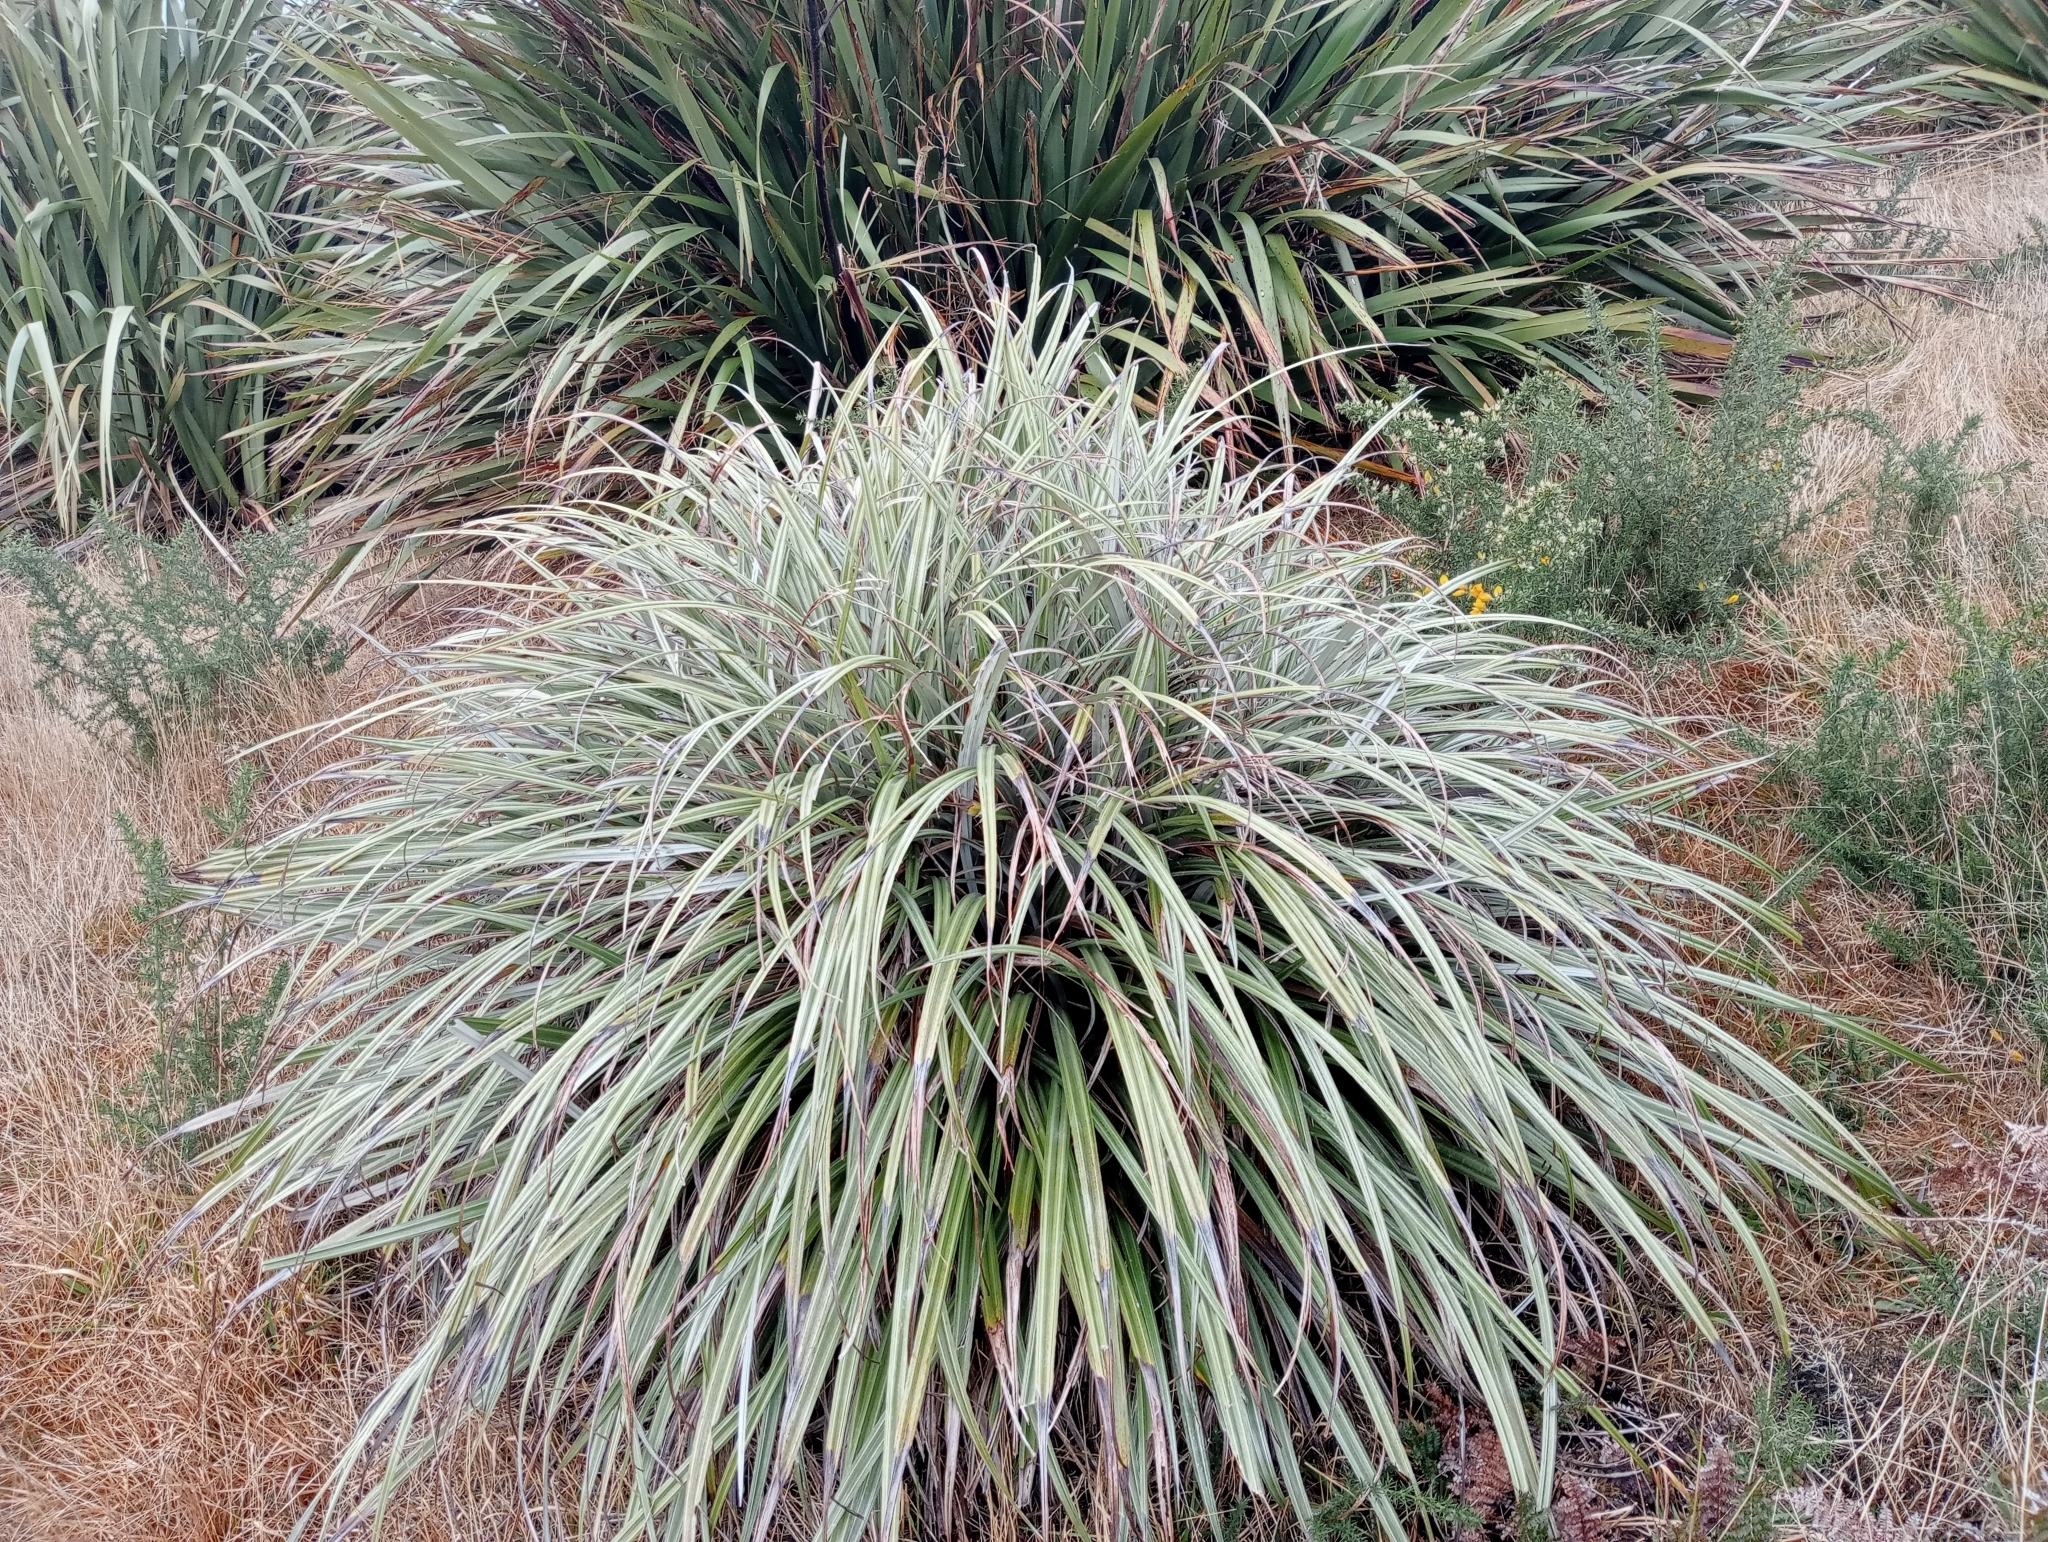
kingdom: Plantae
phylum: Tracheophyta
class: Liliopsida
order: Asparagales
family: Asteliaceae
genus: Astelia
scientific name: Astelia nervosa
